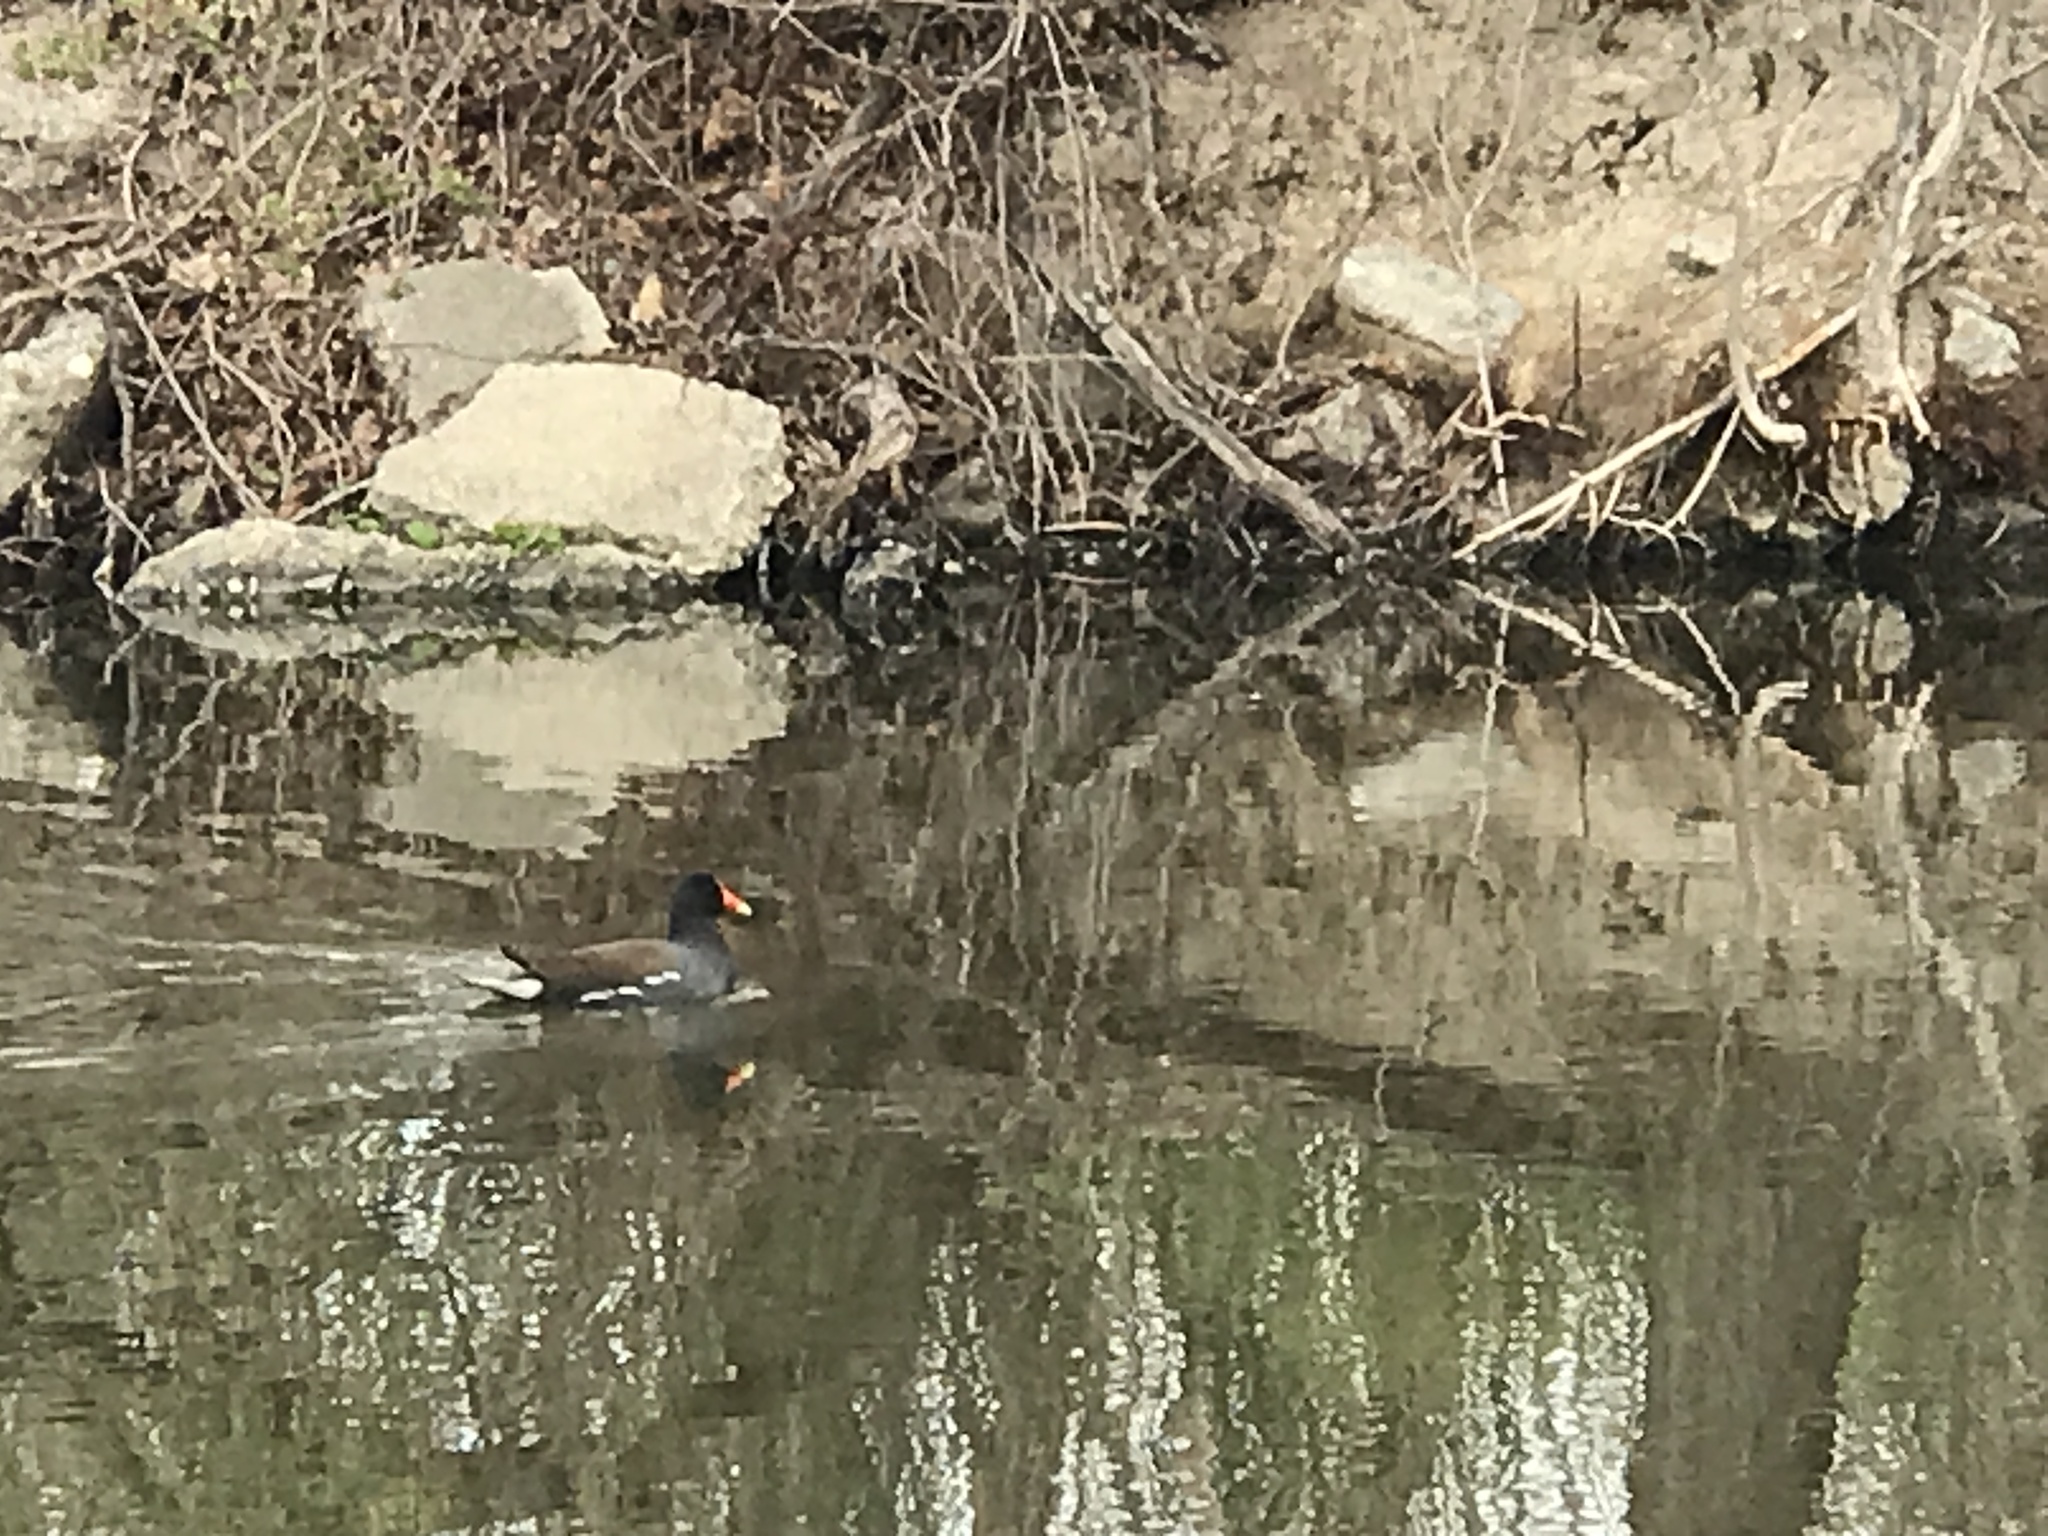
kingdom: Animalia
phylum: Chordata
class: Aves
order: Gruiformes
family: Rallidae
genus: Gallinula
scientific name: Gallinula chloropus
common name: Common moorhen
